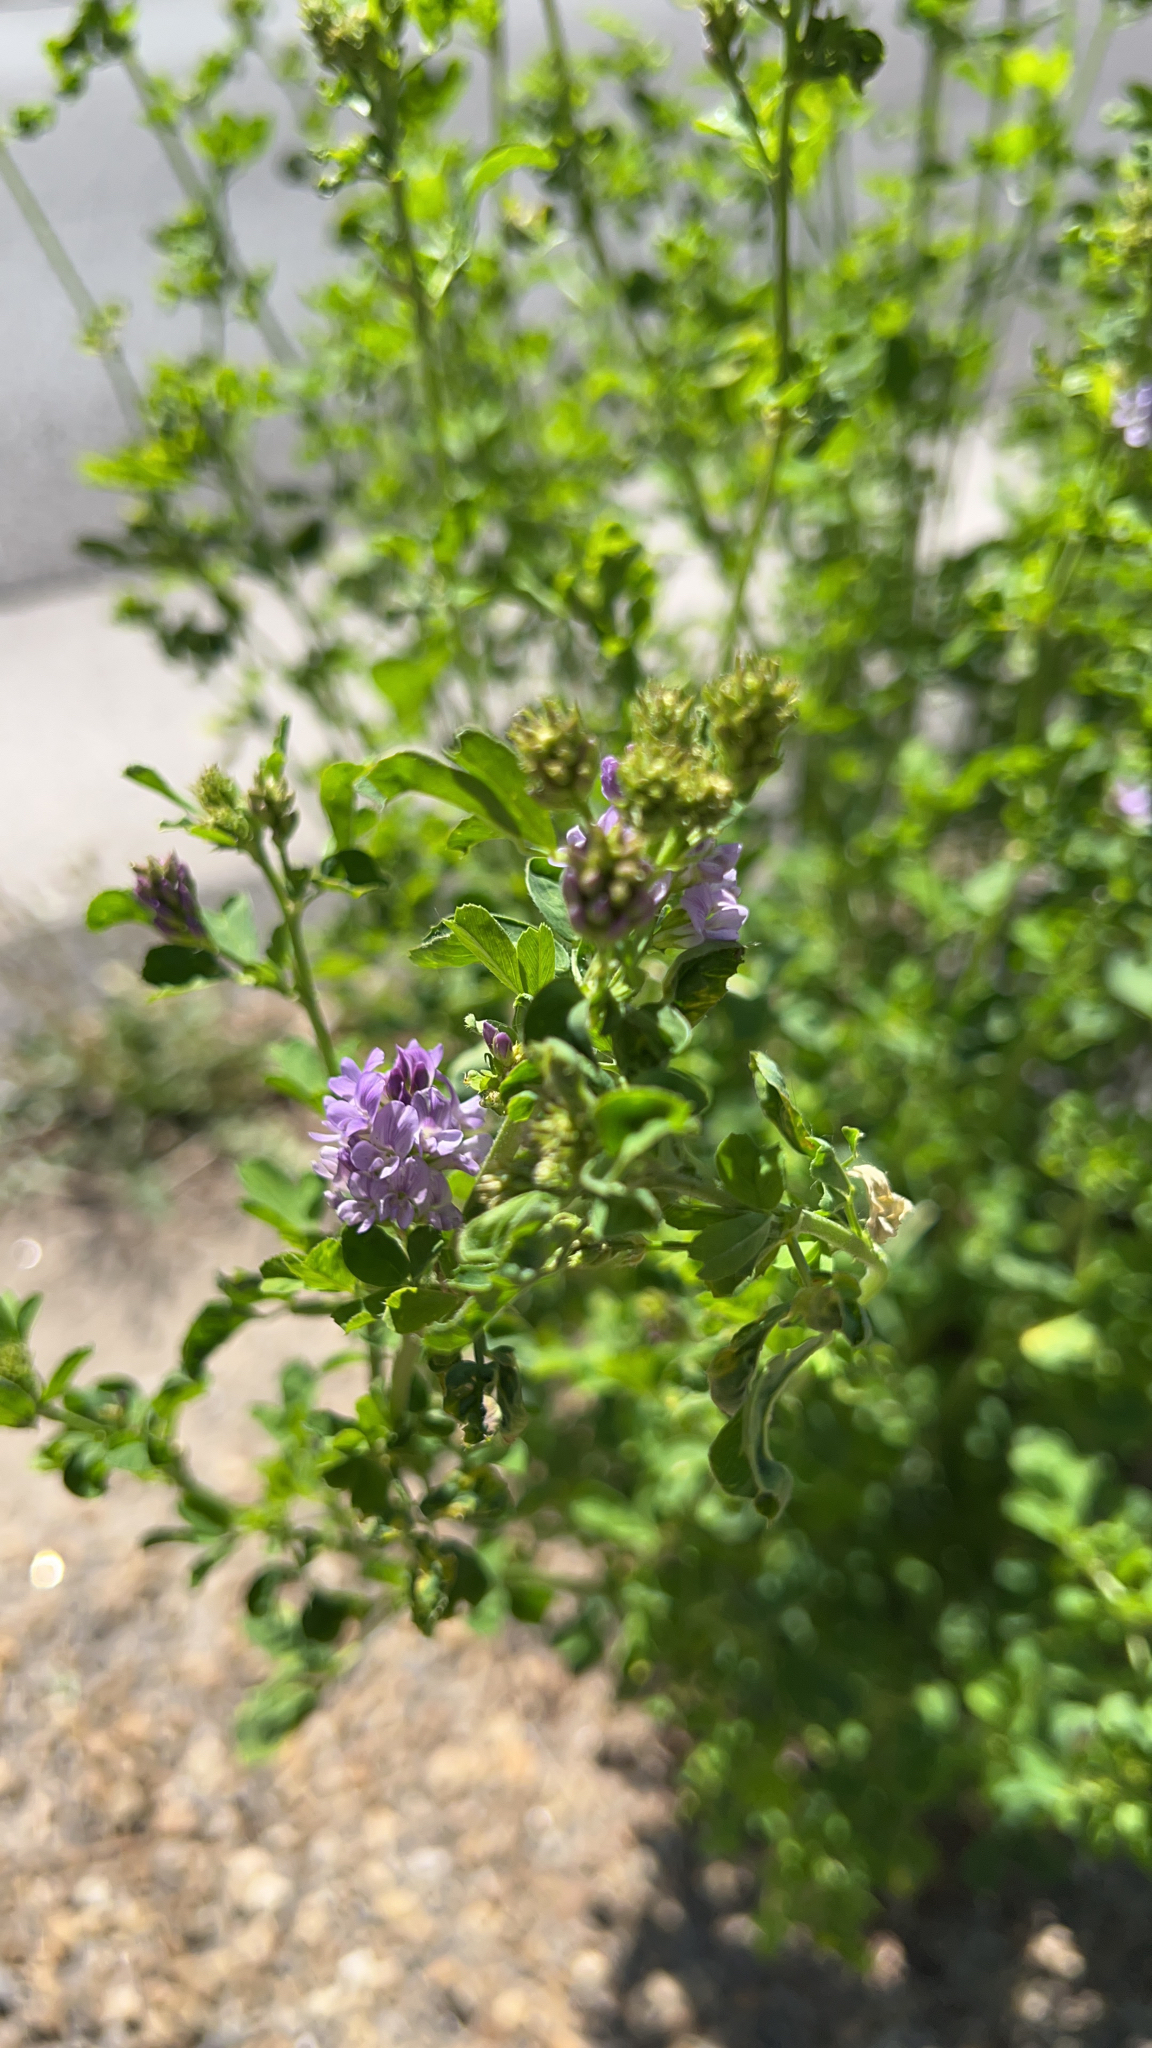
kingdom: Plantae
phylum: Tracheophyta
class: Magnoliopsida
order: Fabales
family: Fabaceae
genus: Medicago
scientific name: Medicago sativa
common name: Alfalfa
